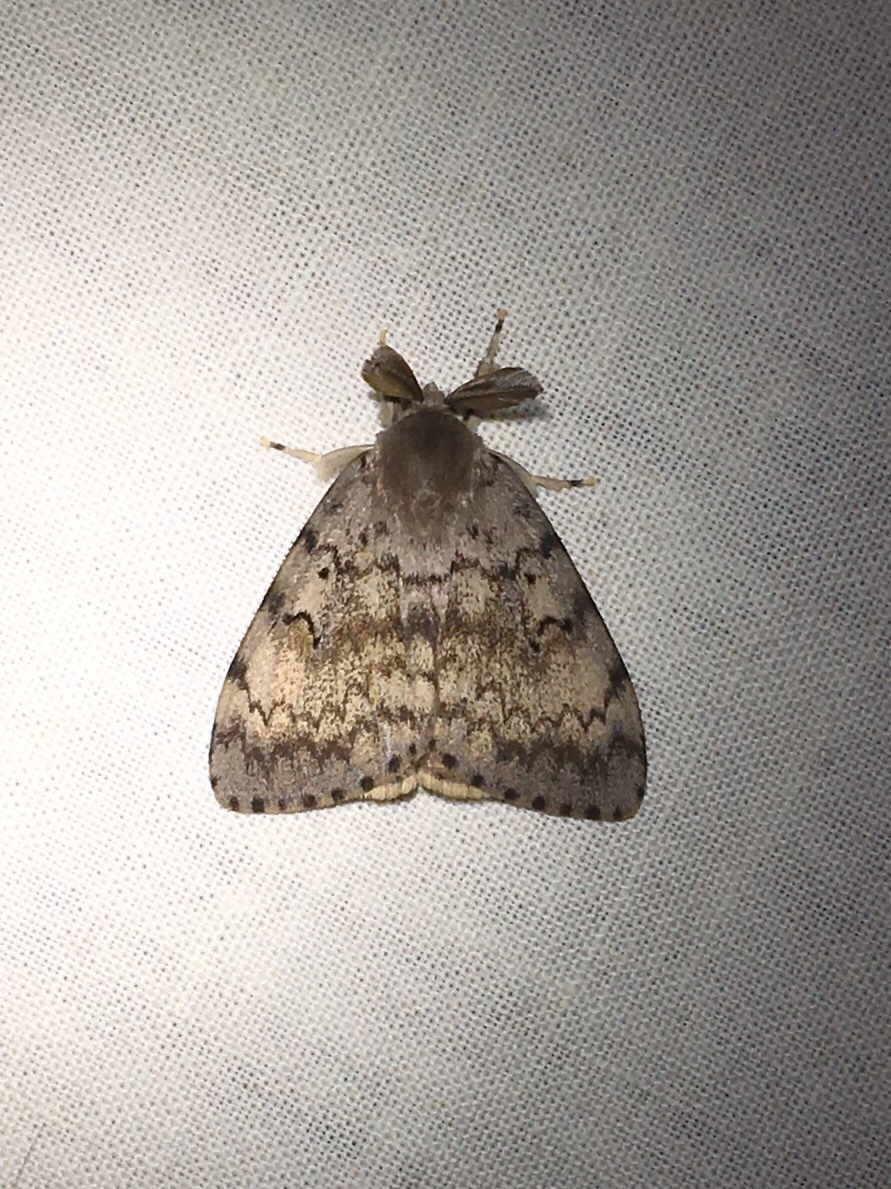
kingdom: Animalia
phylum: Arthropoda
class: Insecta
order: Lepidoptera
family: Erebidae
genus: Lymantria
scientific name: Lymantria dispar
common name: Gypsy moth
